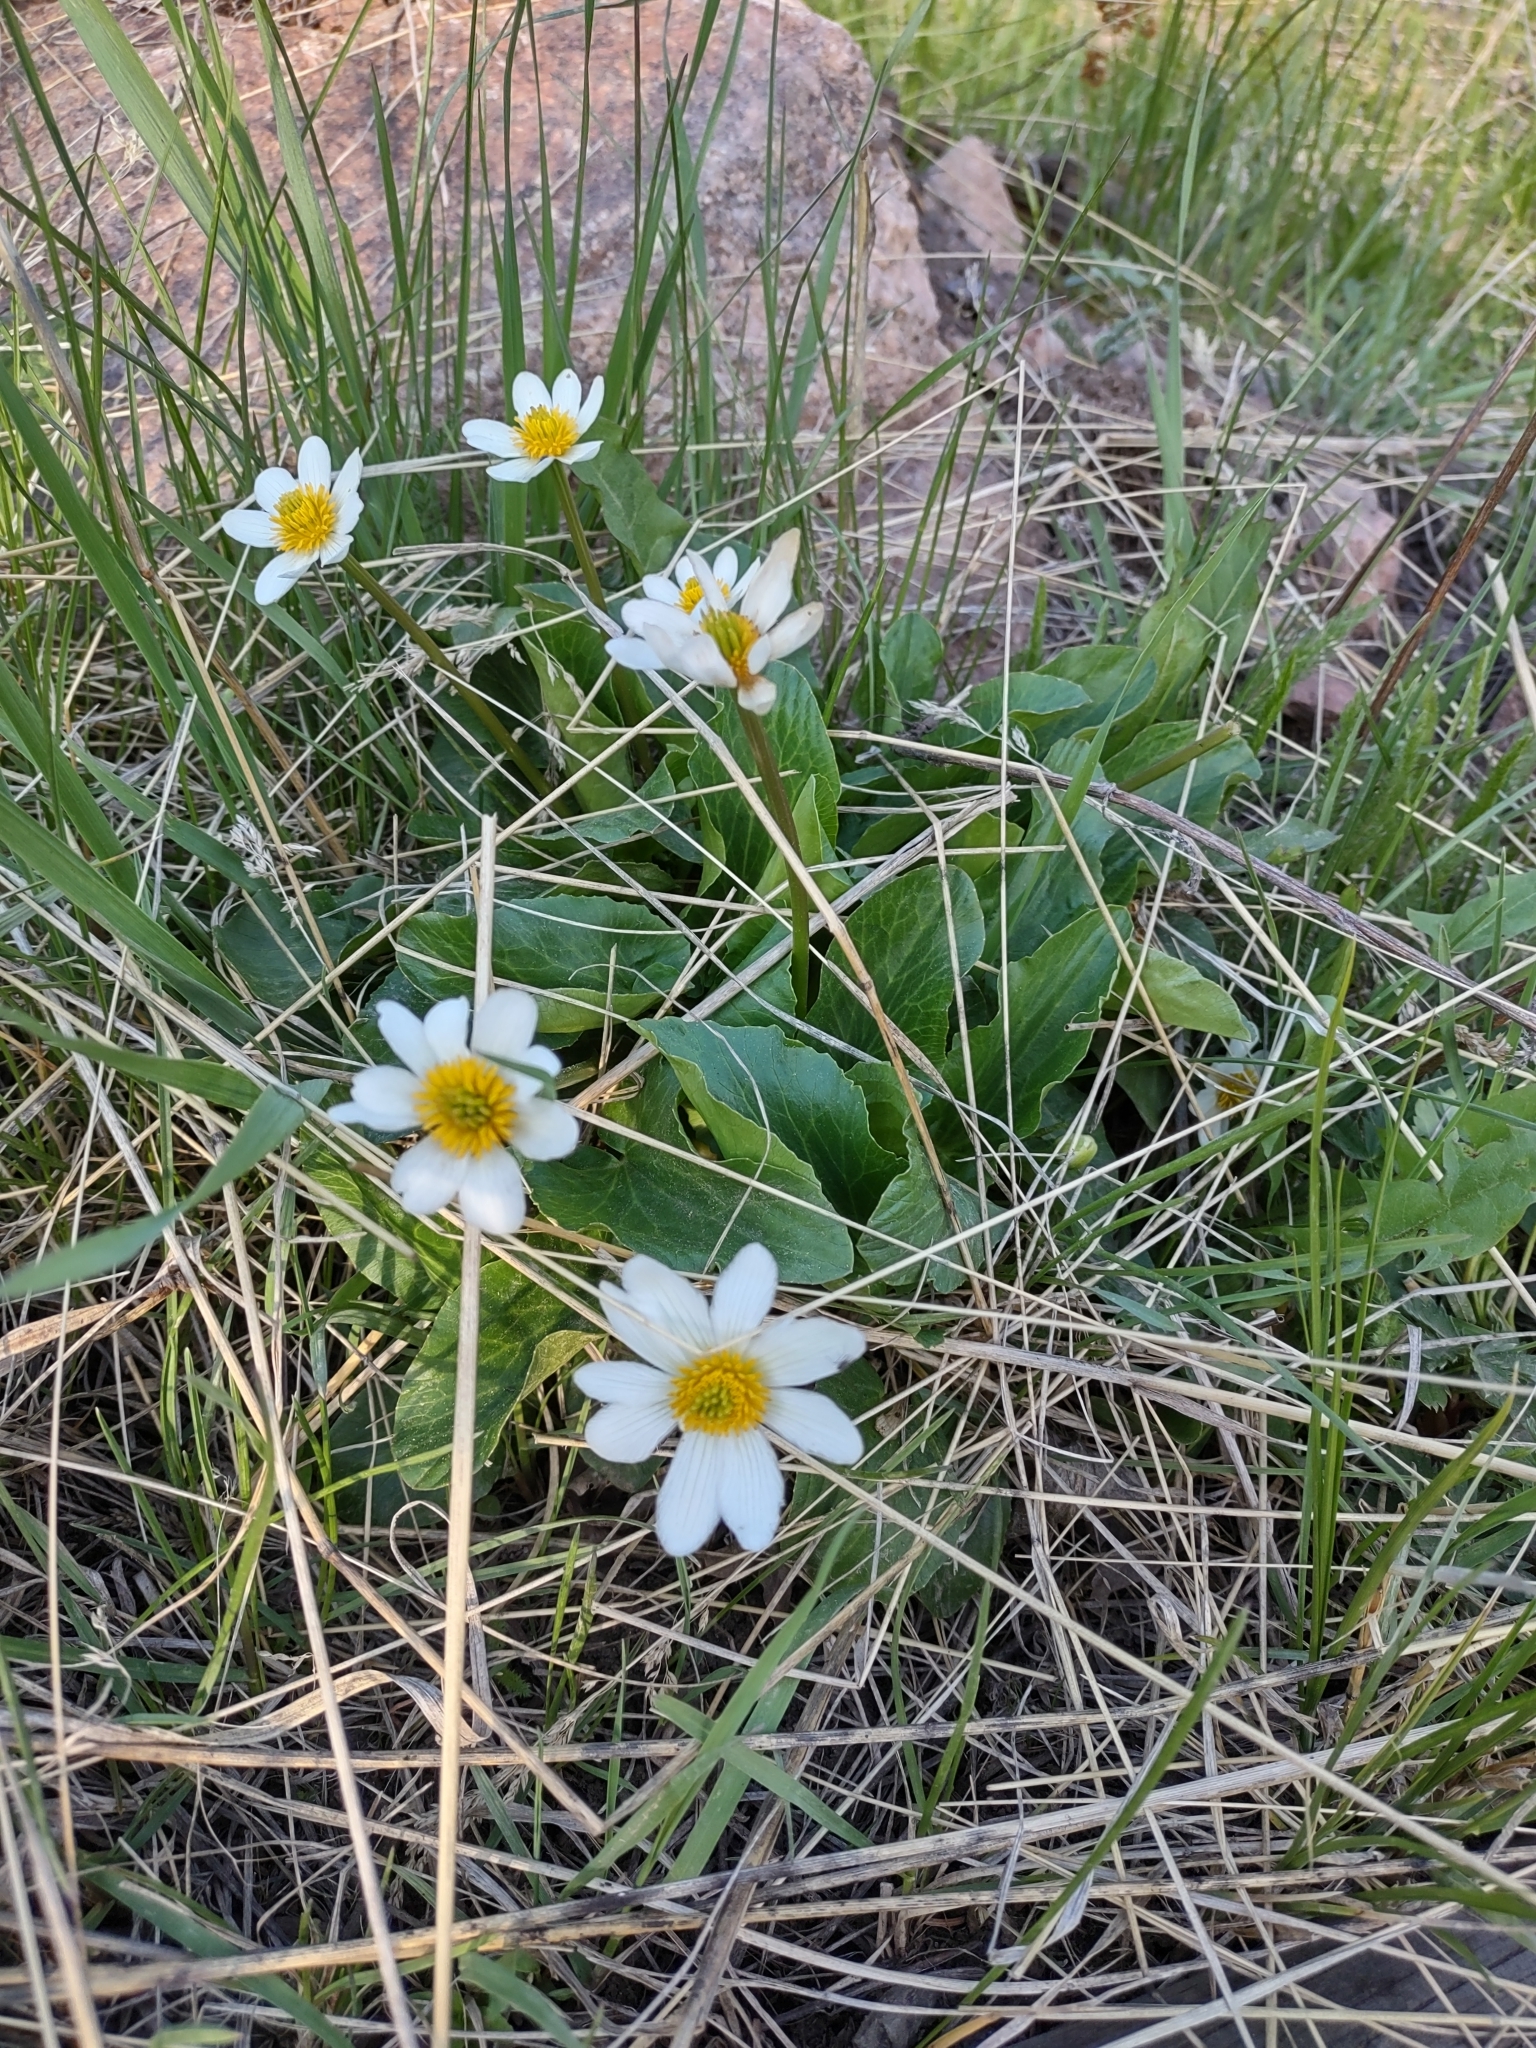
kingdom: Plantae
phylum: Tracheophyta
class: Magnoliopsida
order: Ranunculales
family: Ranunculaceae
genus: Caltha
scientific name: Caltha leptosepala
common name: Elkslip
